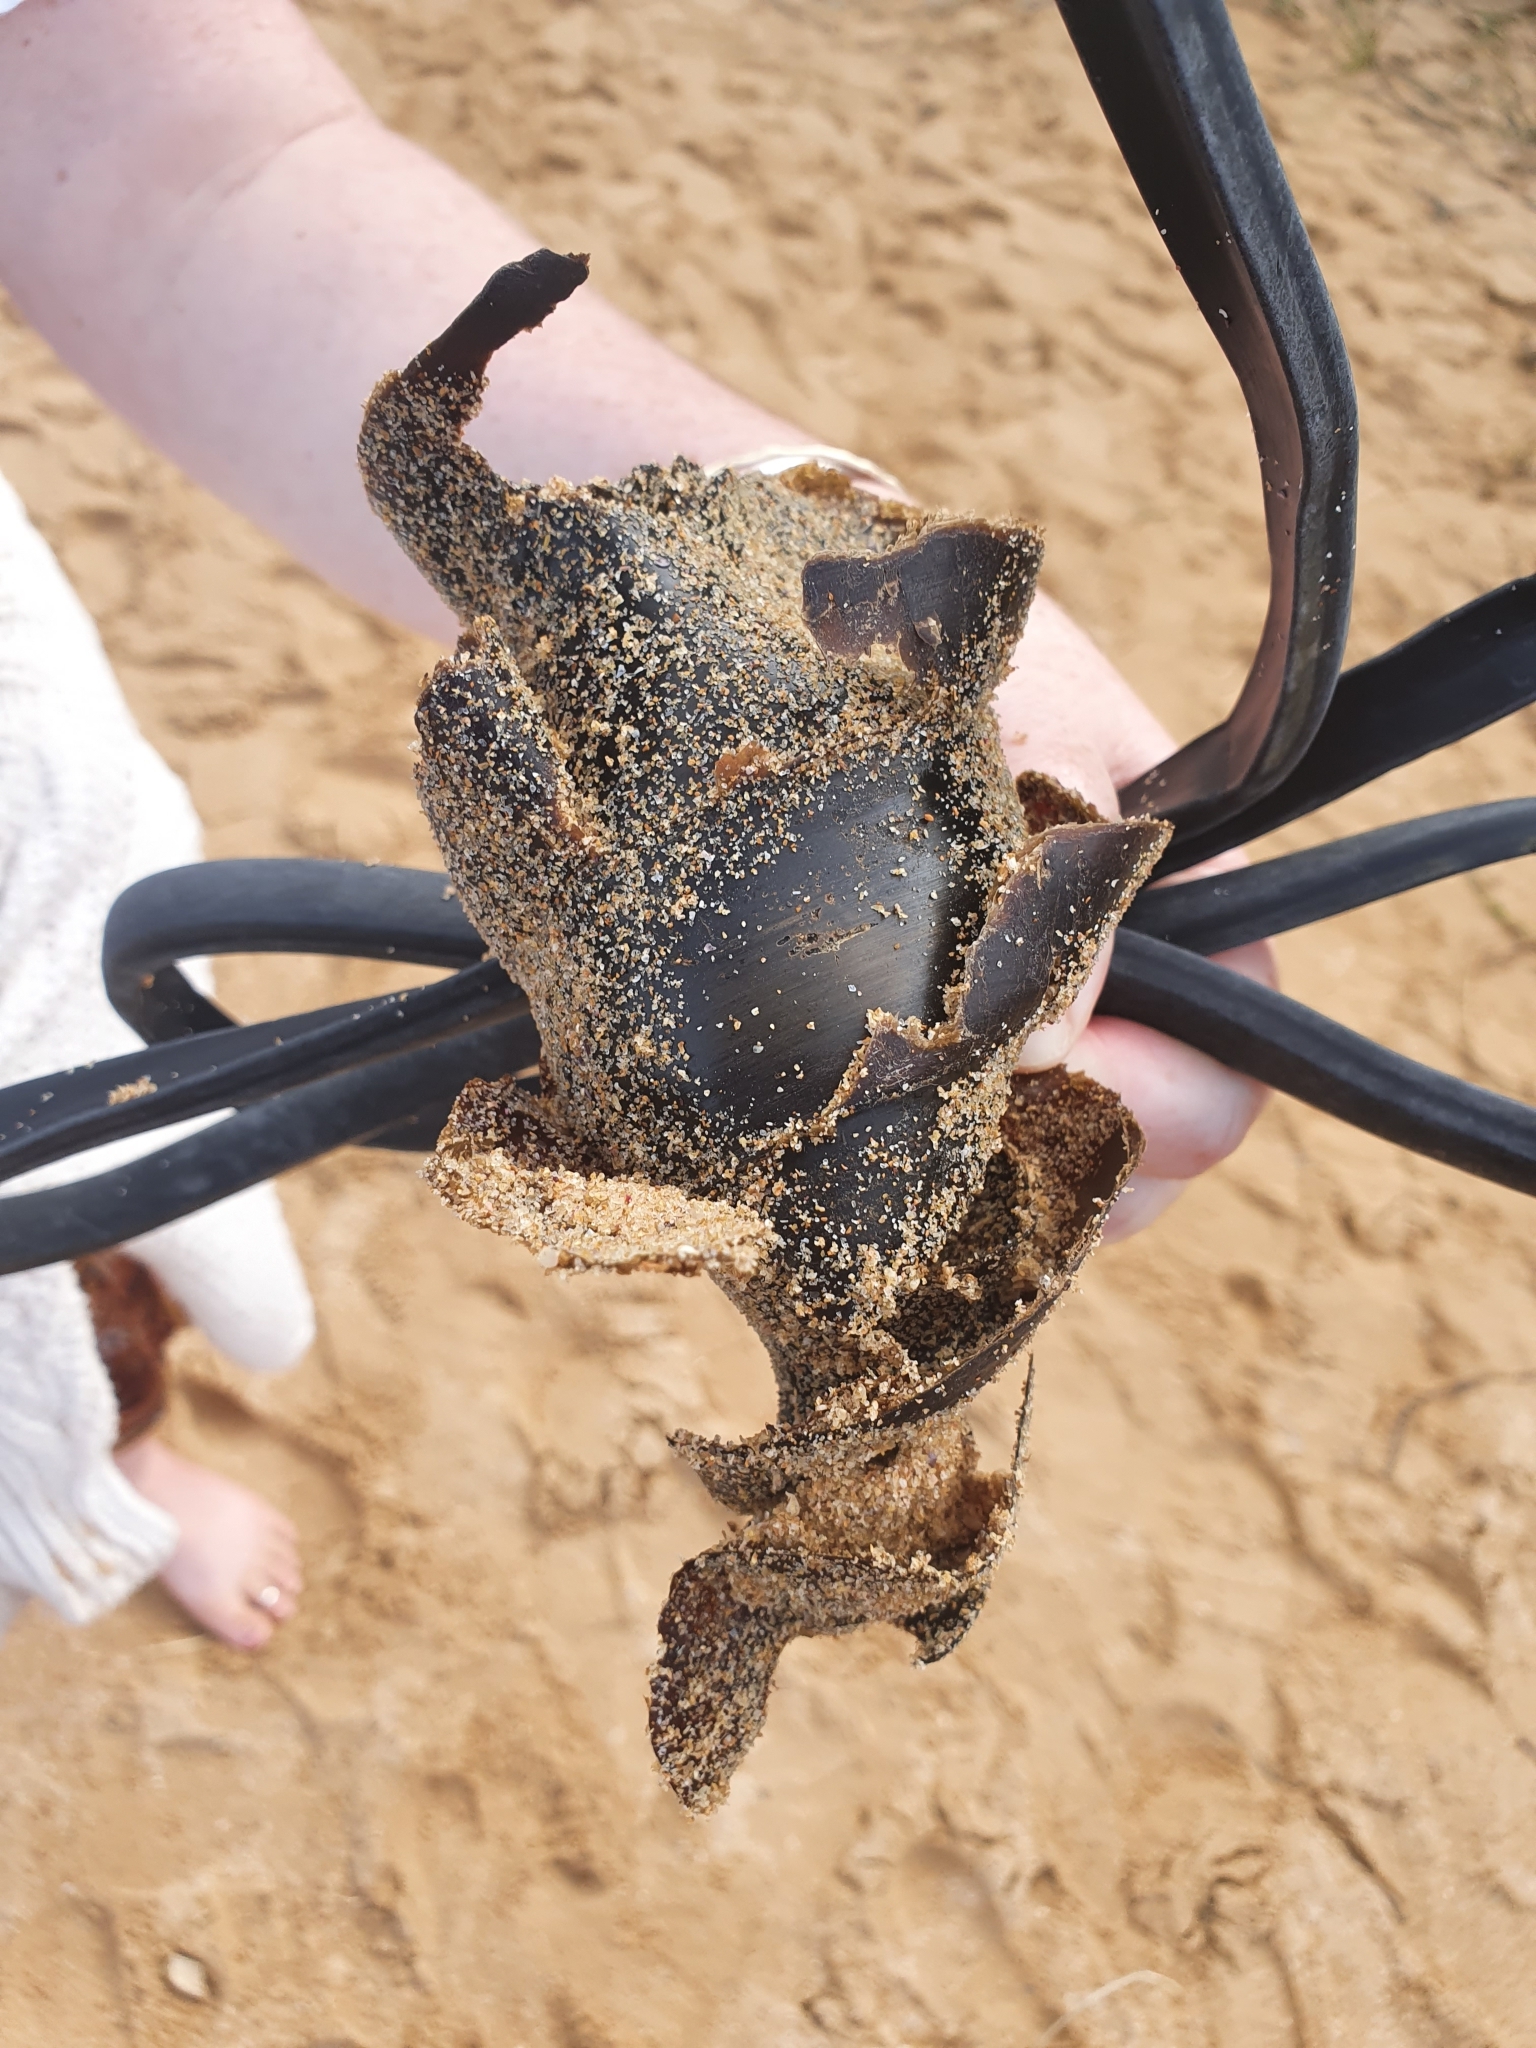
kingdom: Animalia
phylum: Chordata
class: Elasmobranchii
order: Heterodontiformes
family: Heterodontidae
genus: Heterodontus
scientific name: Heterodontus portusjacksoni
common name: Port jackson shark
